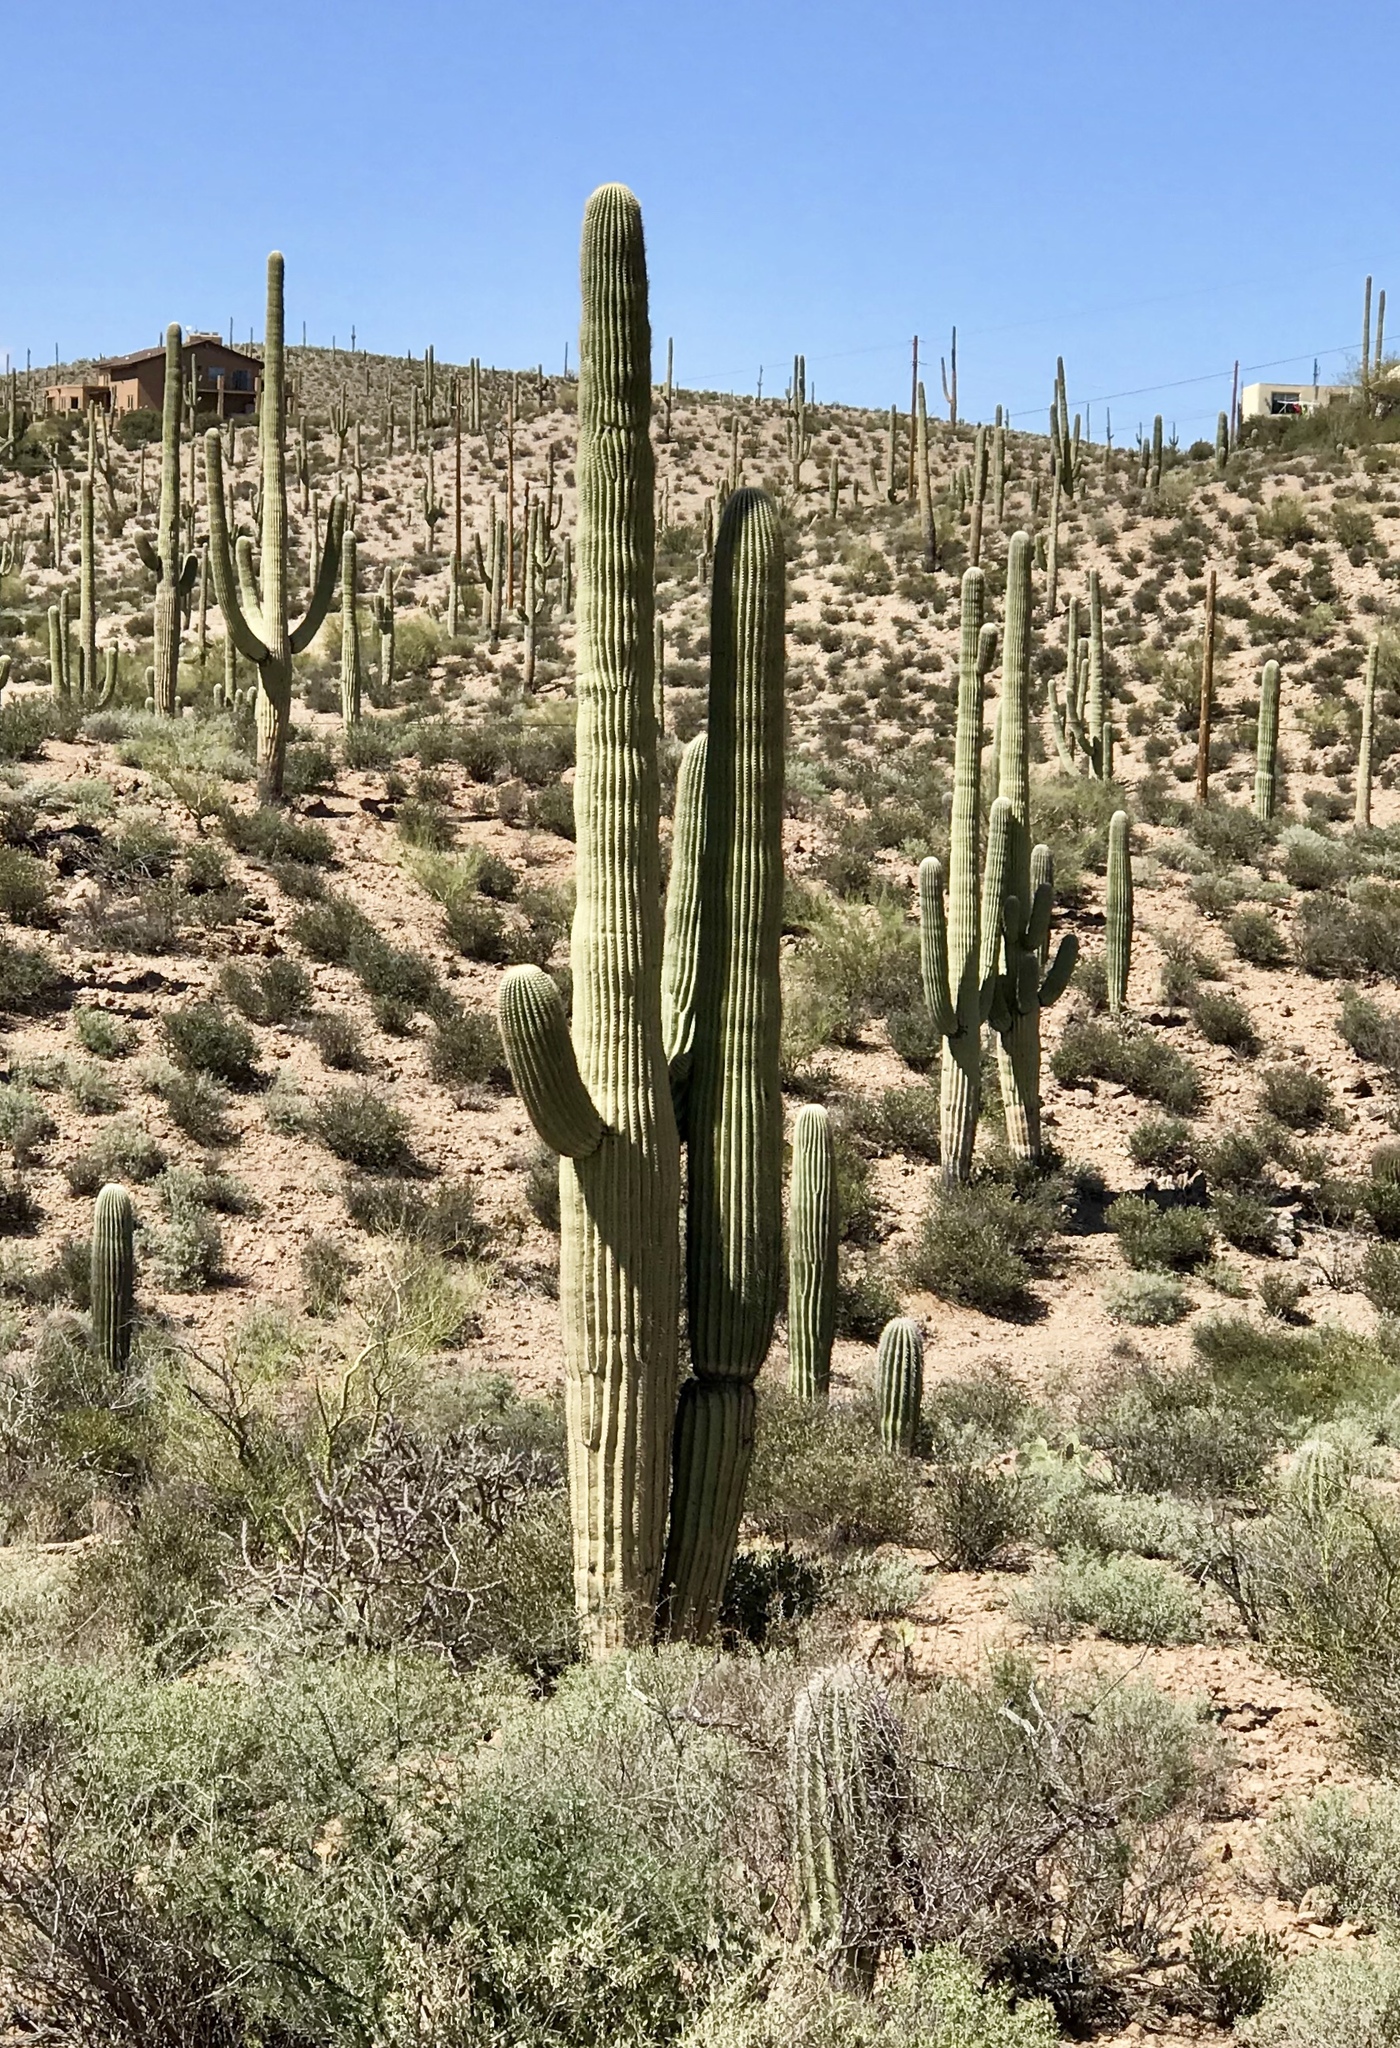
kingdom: Plantae
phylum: Tracheophyta
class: Magnoliopsida
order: Caryophyllales
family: Cactaceae
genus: Carnegiea
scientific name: Carnegiea gigantea
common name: Saguaro
